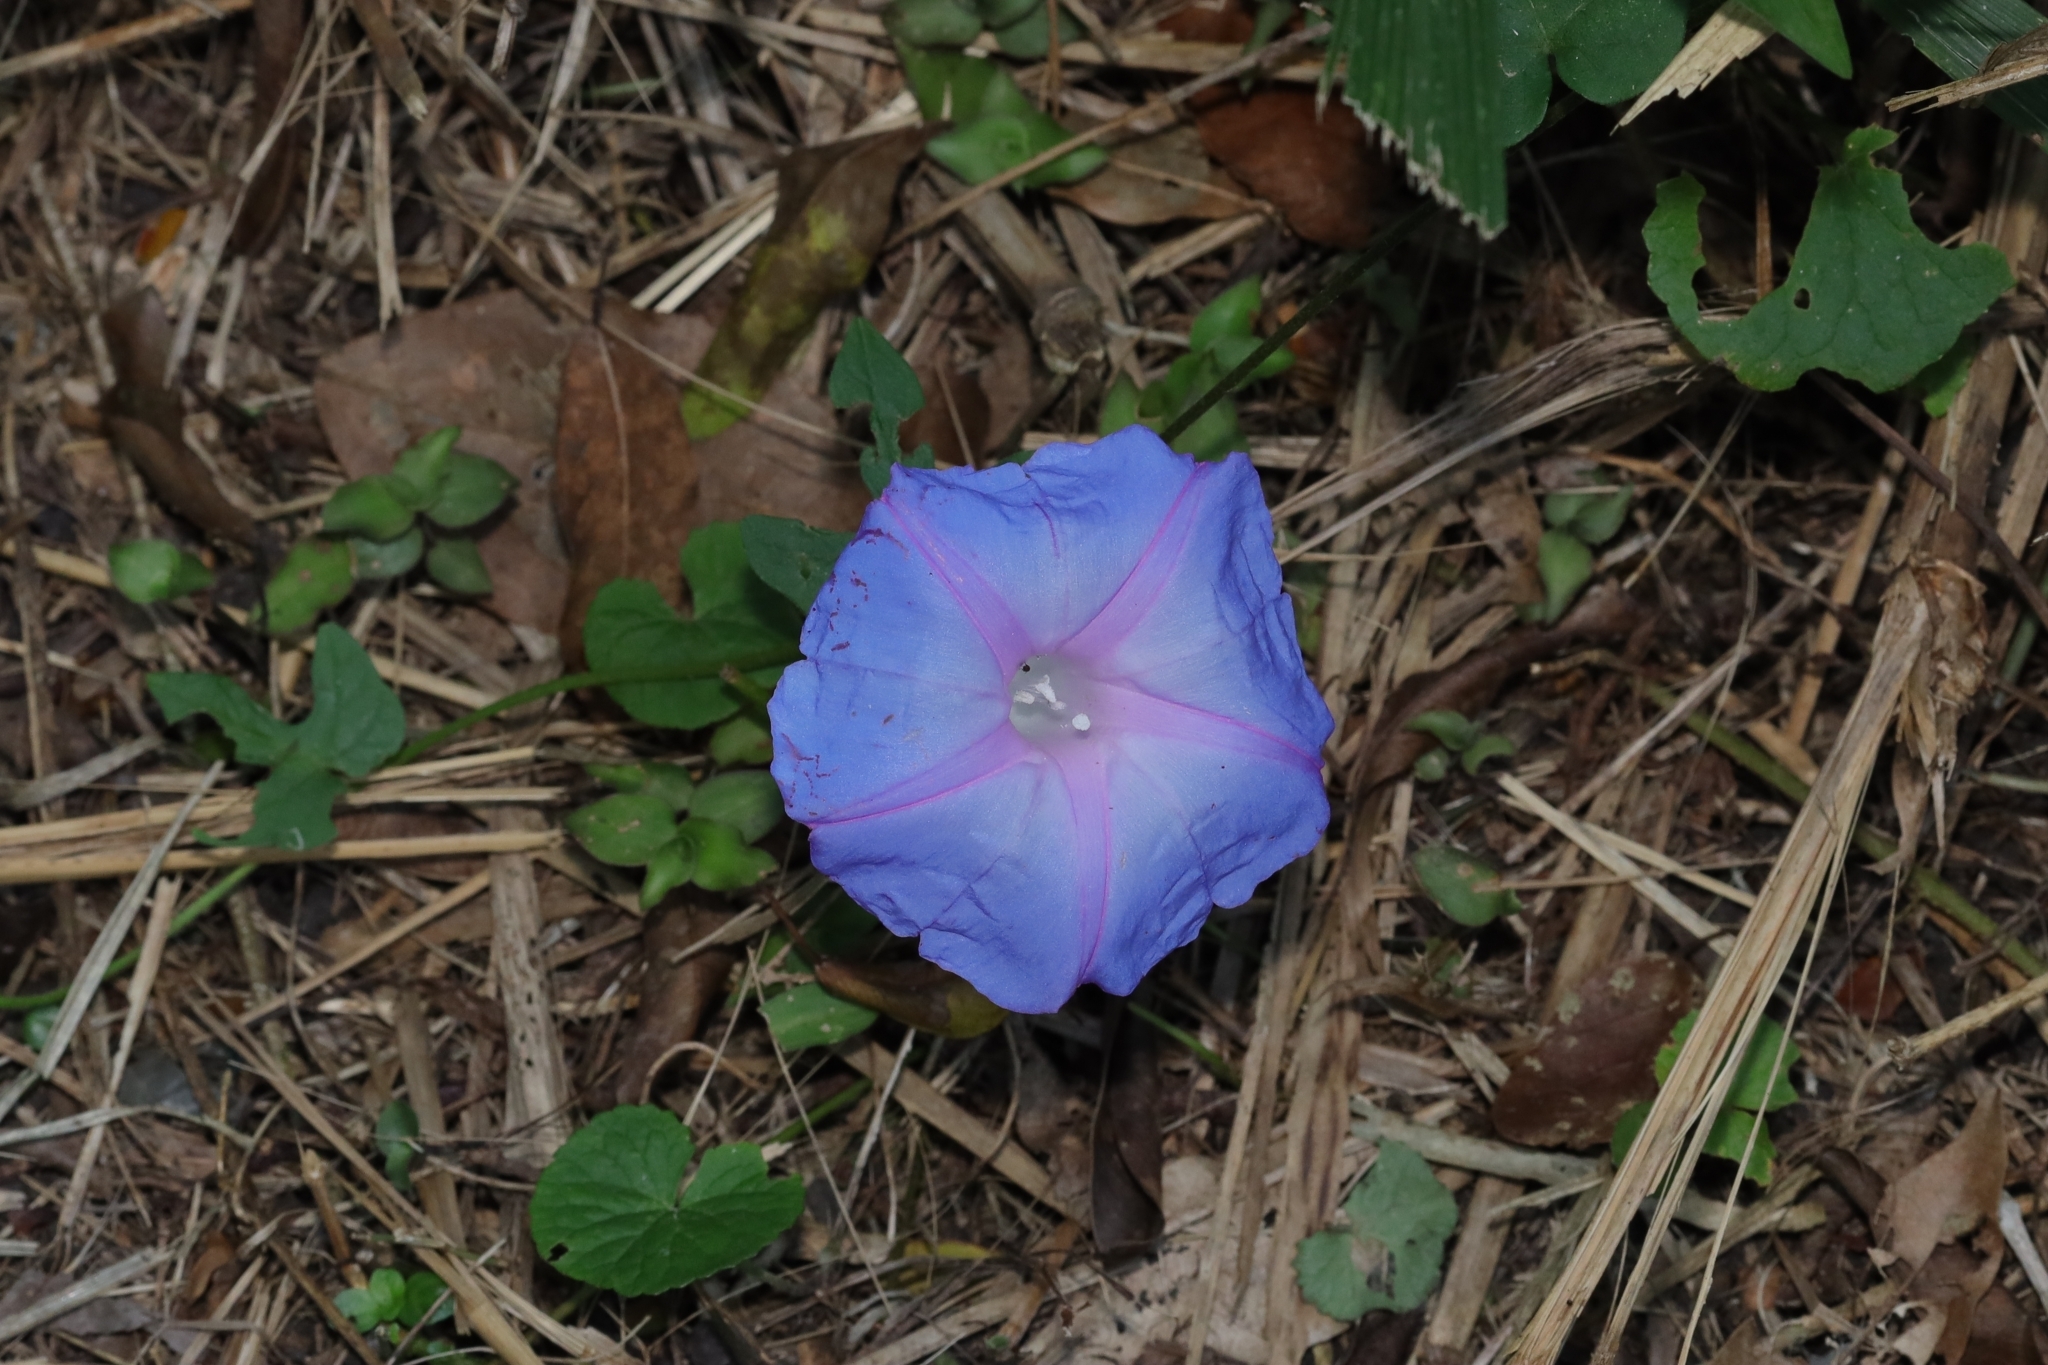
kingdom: Plantae
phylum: Tracheophyta
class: Magnoliopsida
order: Solanales
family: Convolvulaceae
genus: Ipomoea
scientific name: Ipomoea indica
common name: Blue dawnflower
